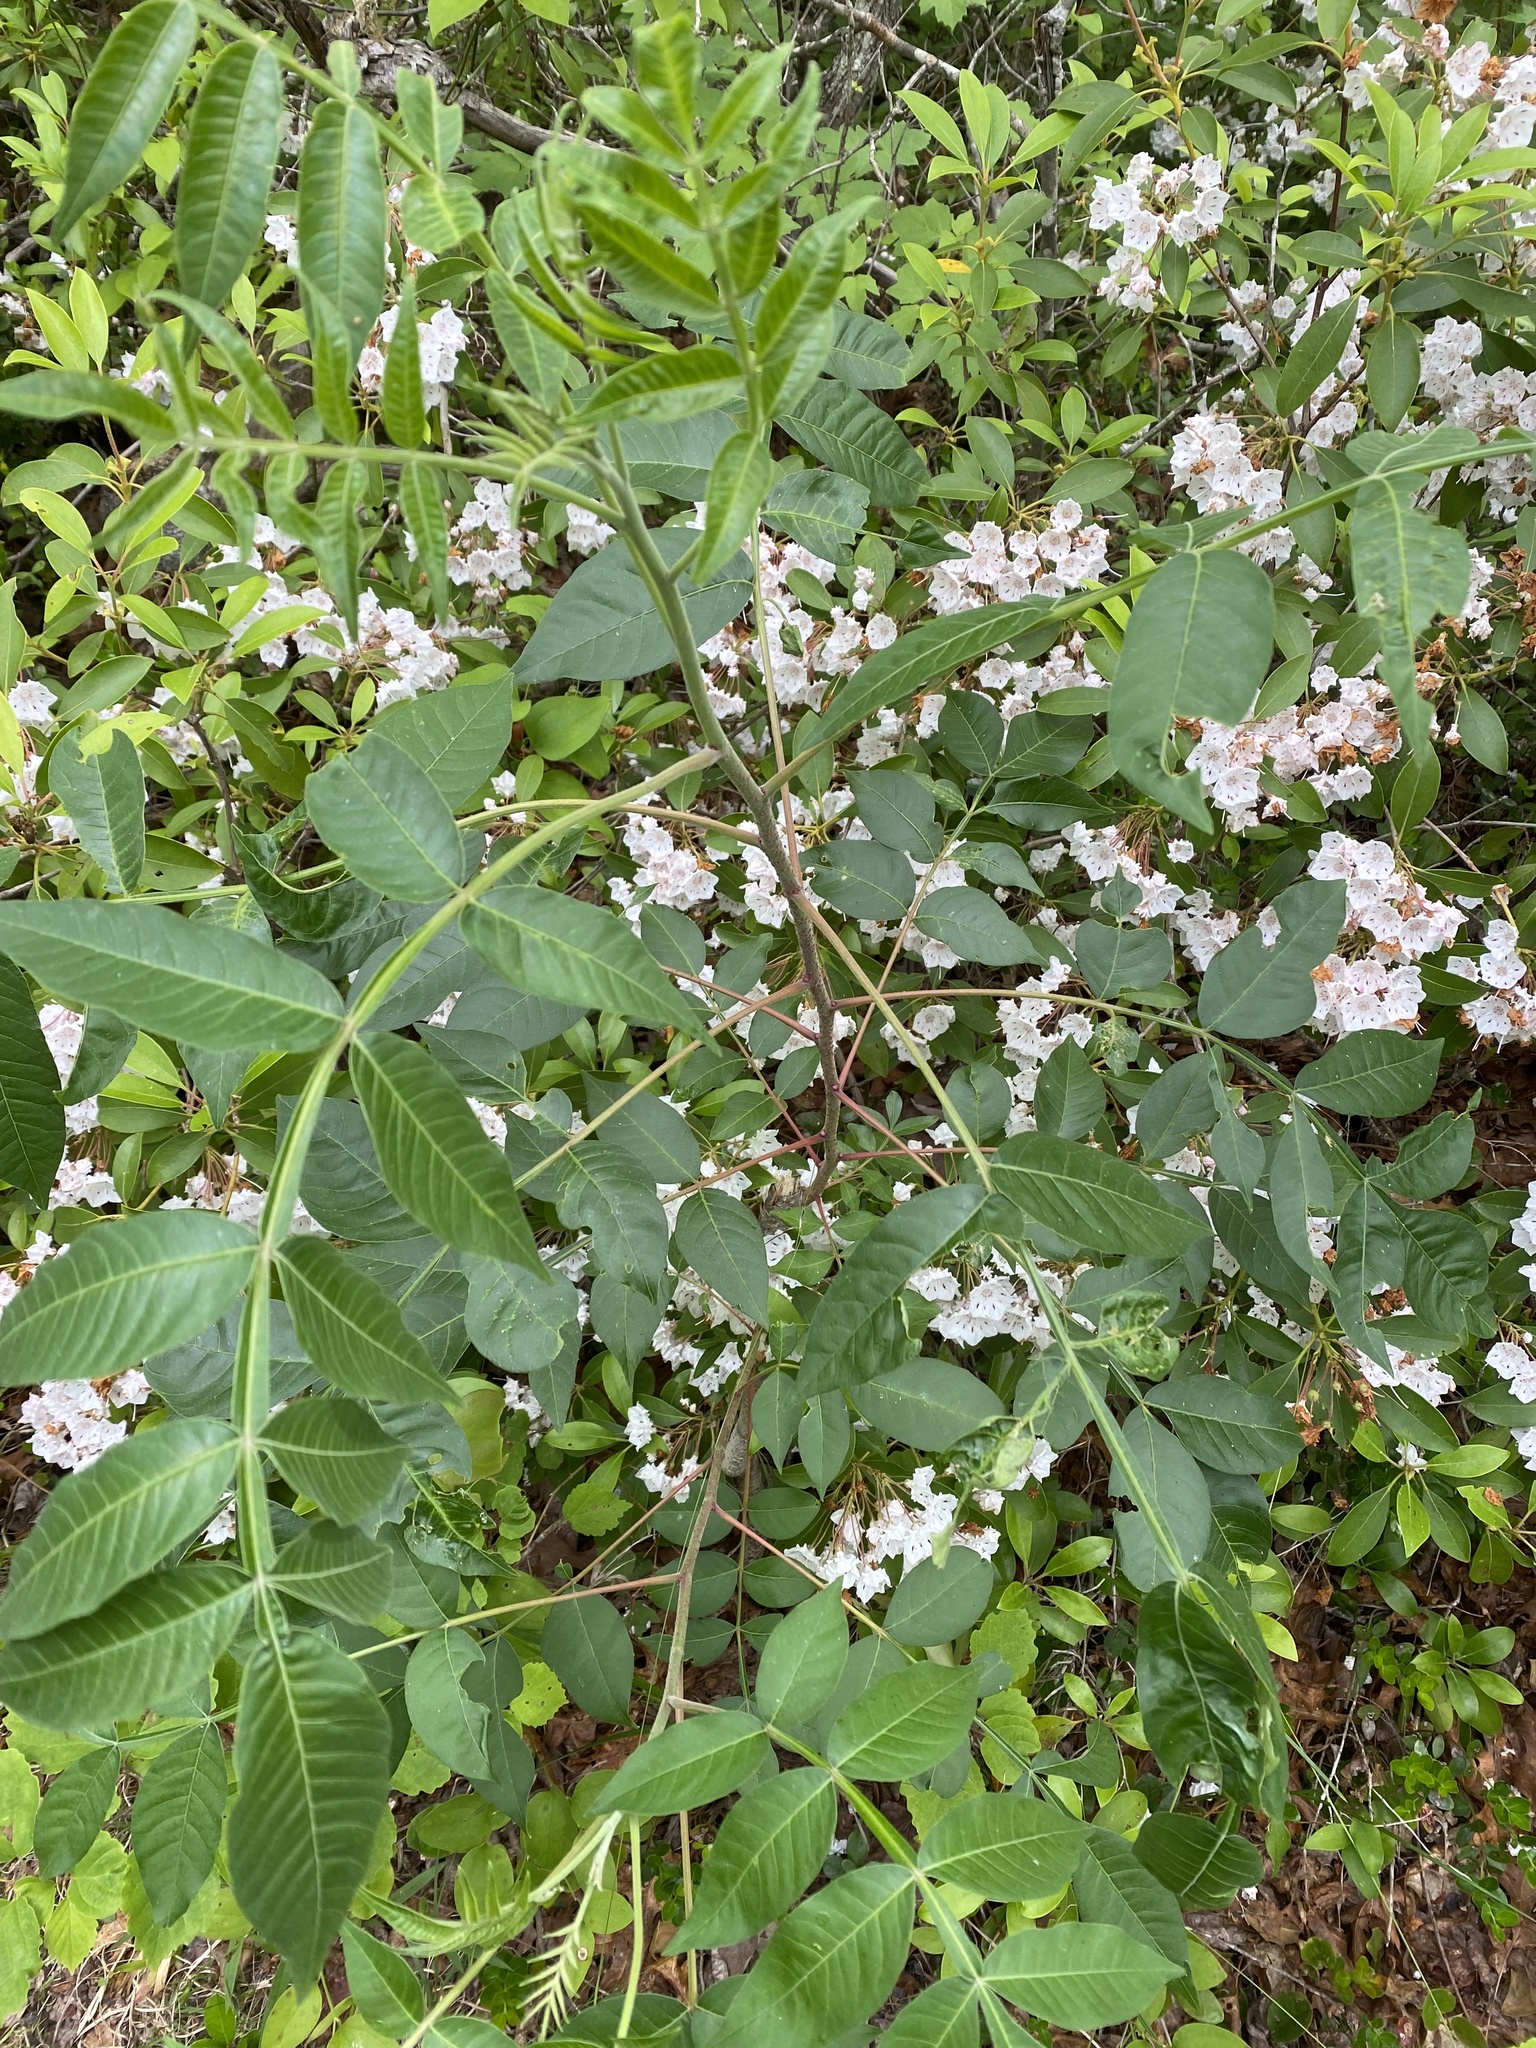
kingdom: Plantae
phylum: Tracheophyta
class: Magnoliopsida
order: Sapindales
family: Anacardiaceae
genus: Rhus
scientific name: Rhus copallina
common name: Shining sumac
